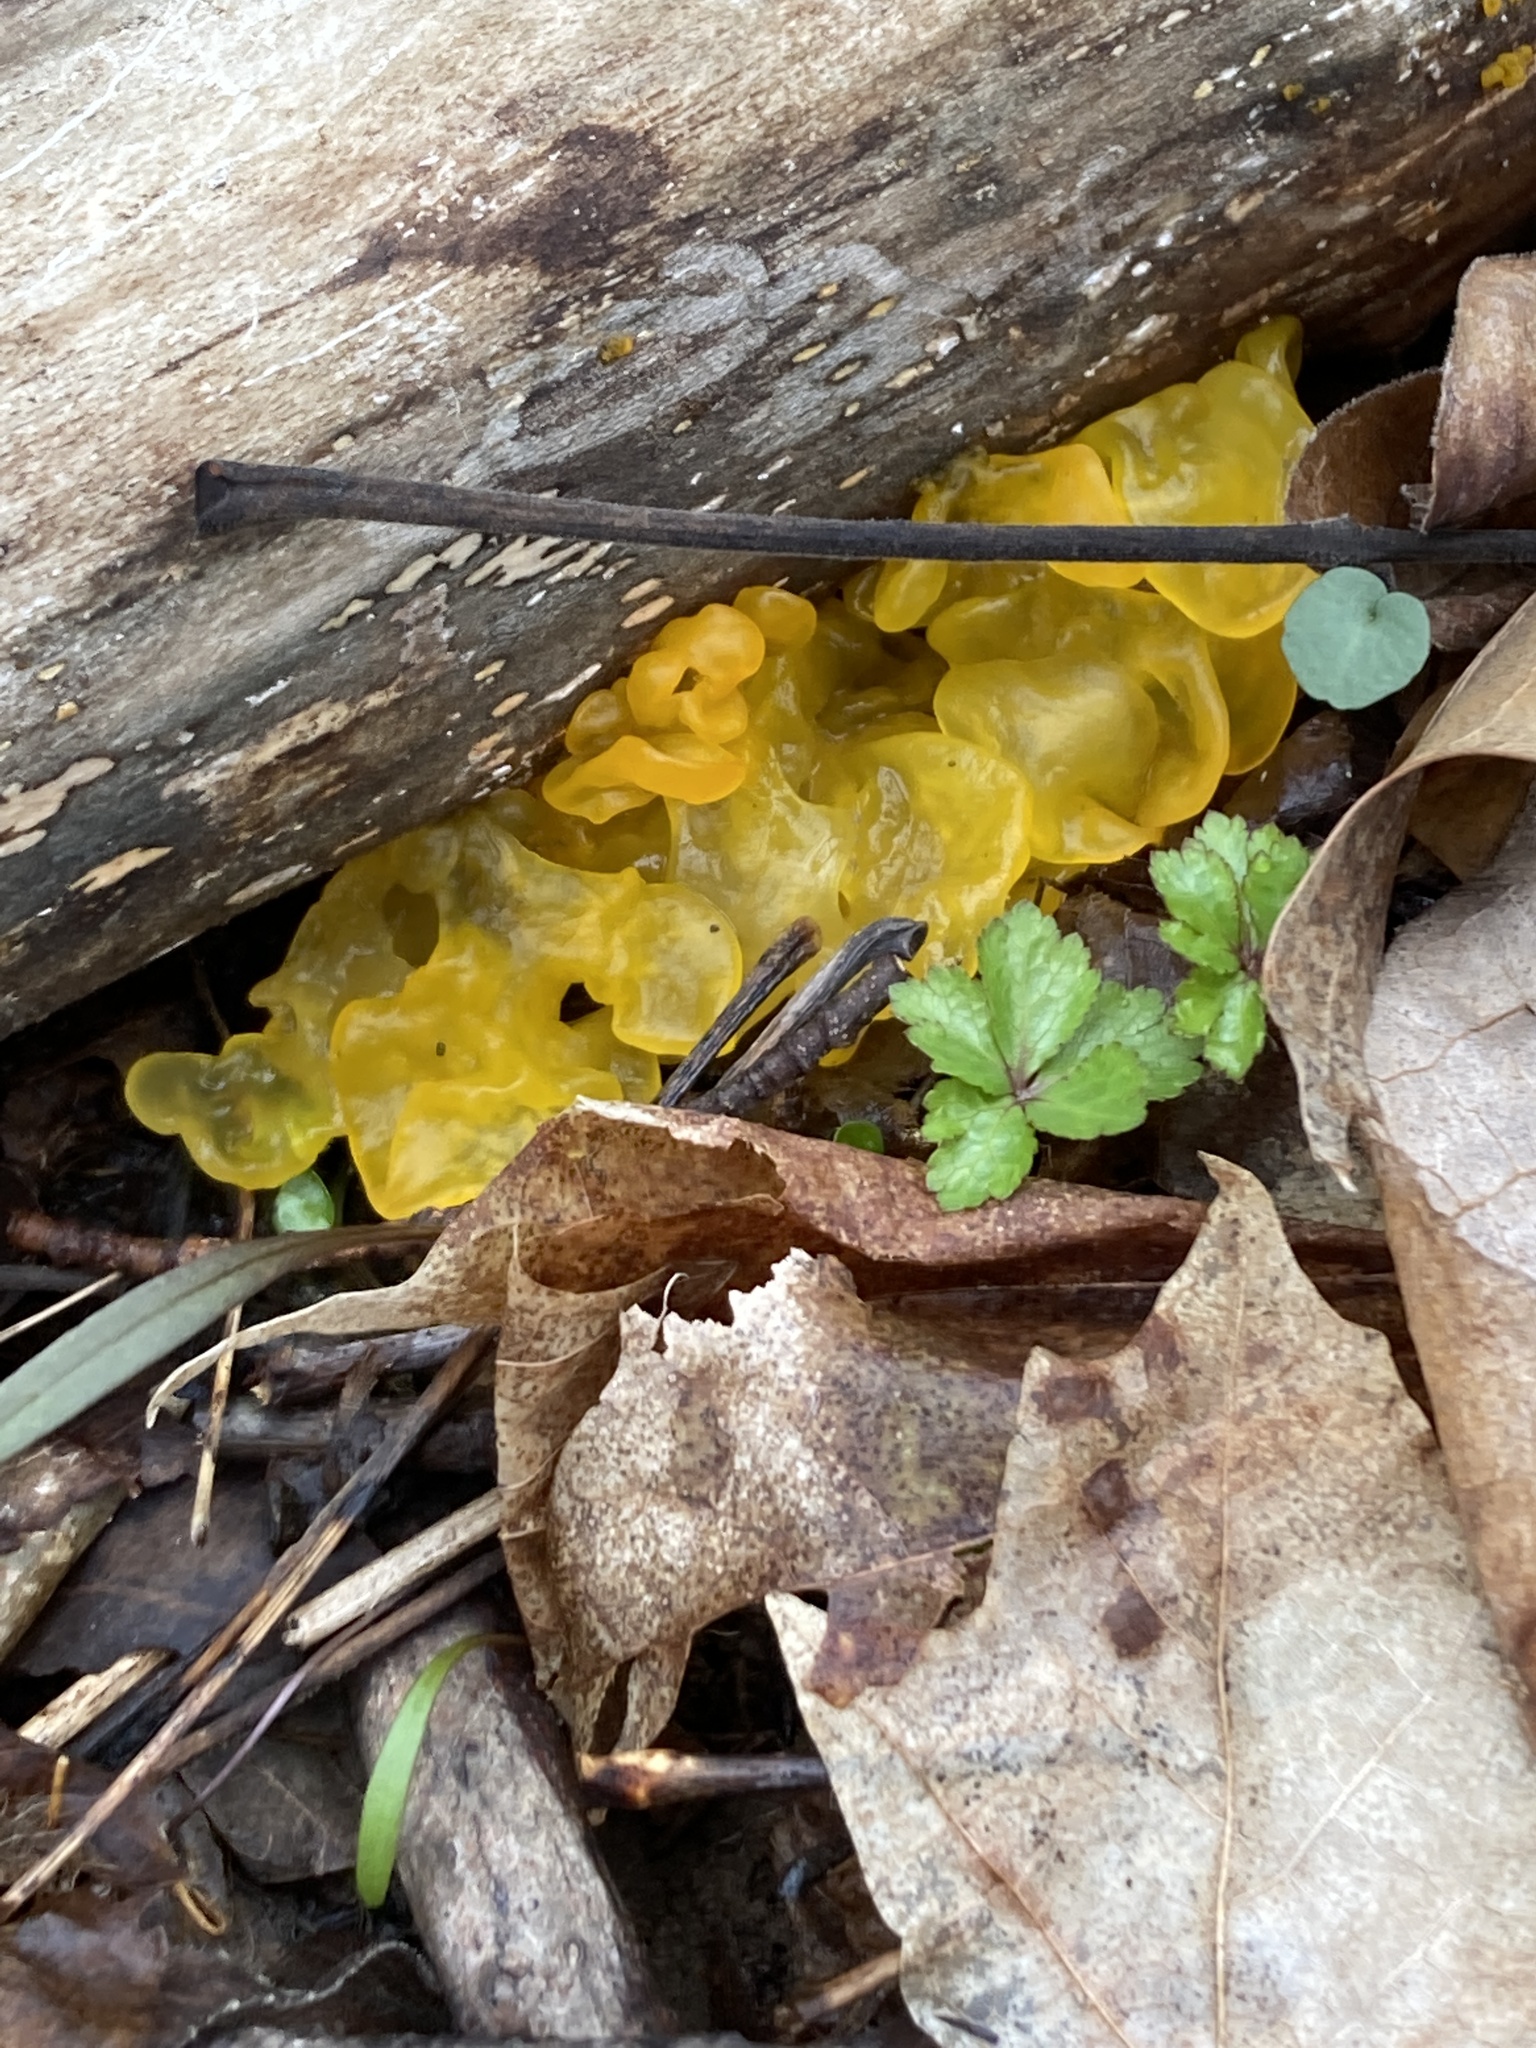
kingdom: Fungi
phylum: Basidiomycota
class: Tremellomycetes
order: Tremellales
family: Tremellaceae
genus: Tremella
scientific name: Tremella mesenterica
